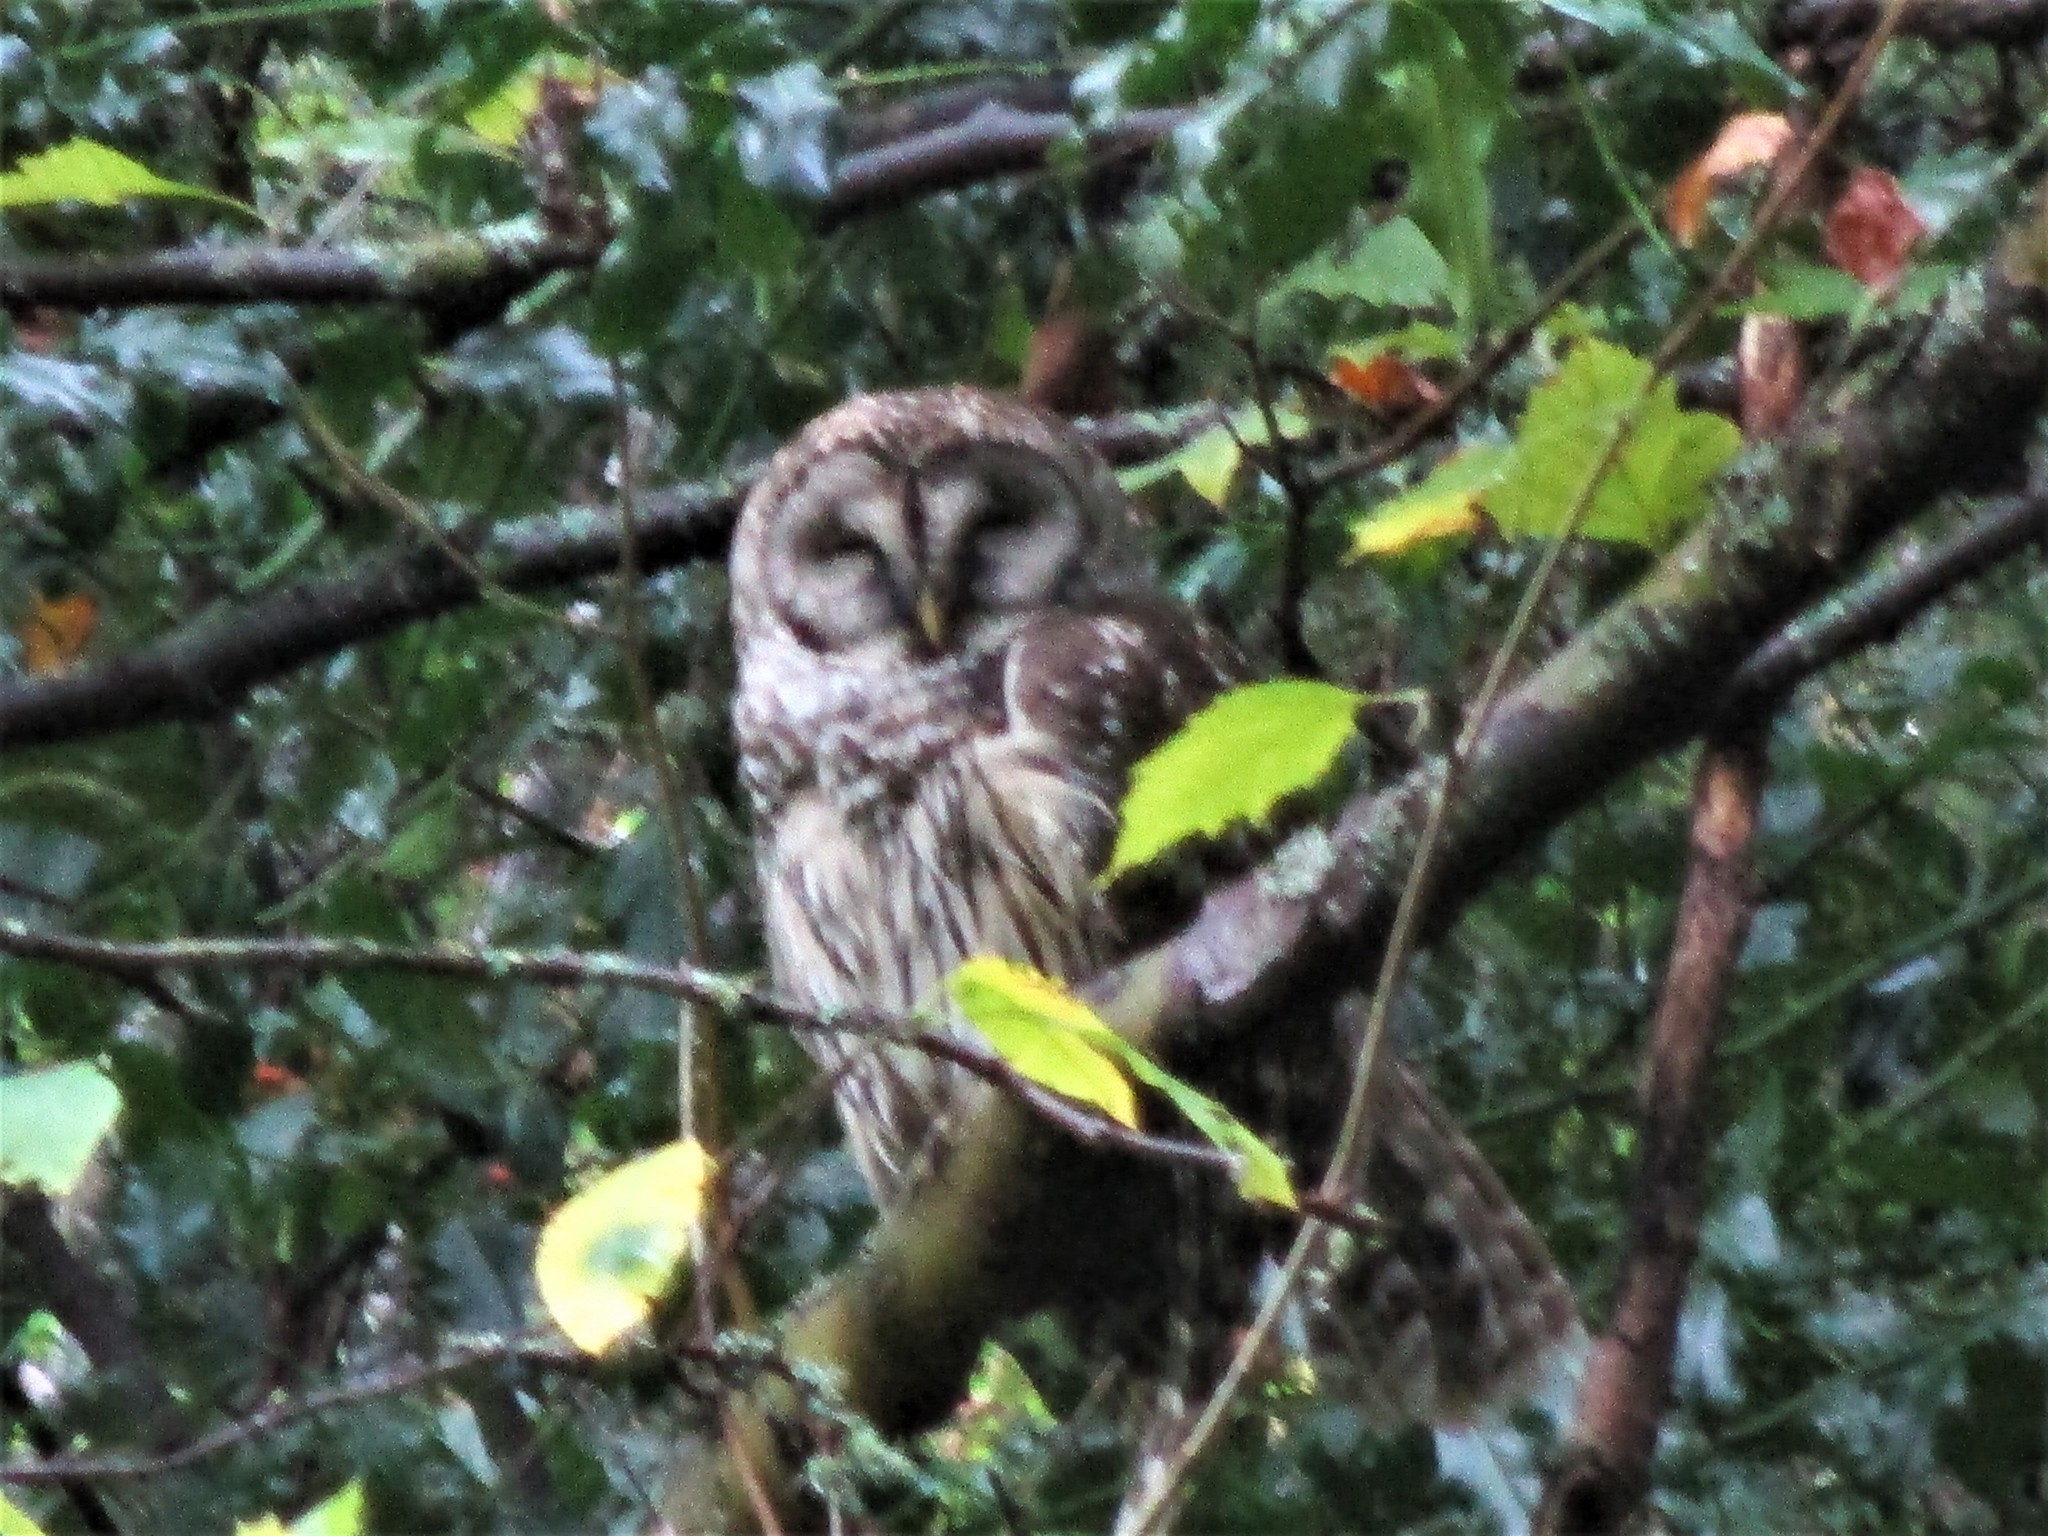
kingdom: Animalia
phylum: Chordata
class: Aves
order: Strigiformes
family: Strigidae
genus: Strix
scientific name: Strix varia
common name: Barred owl
